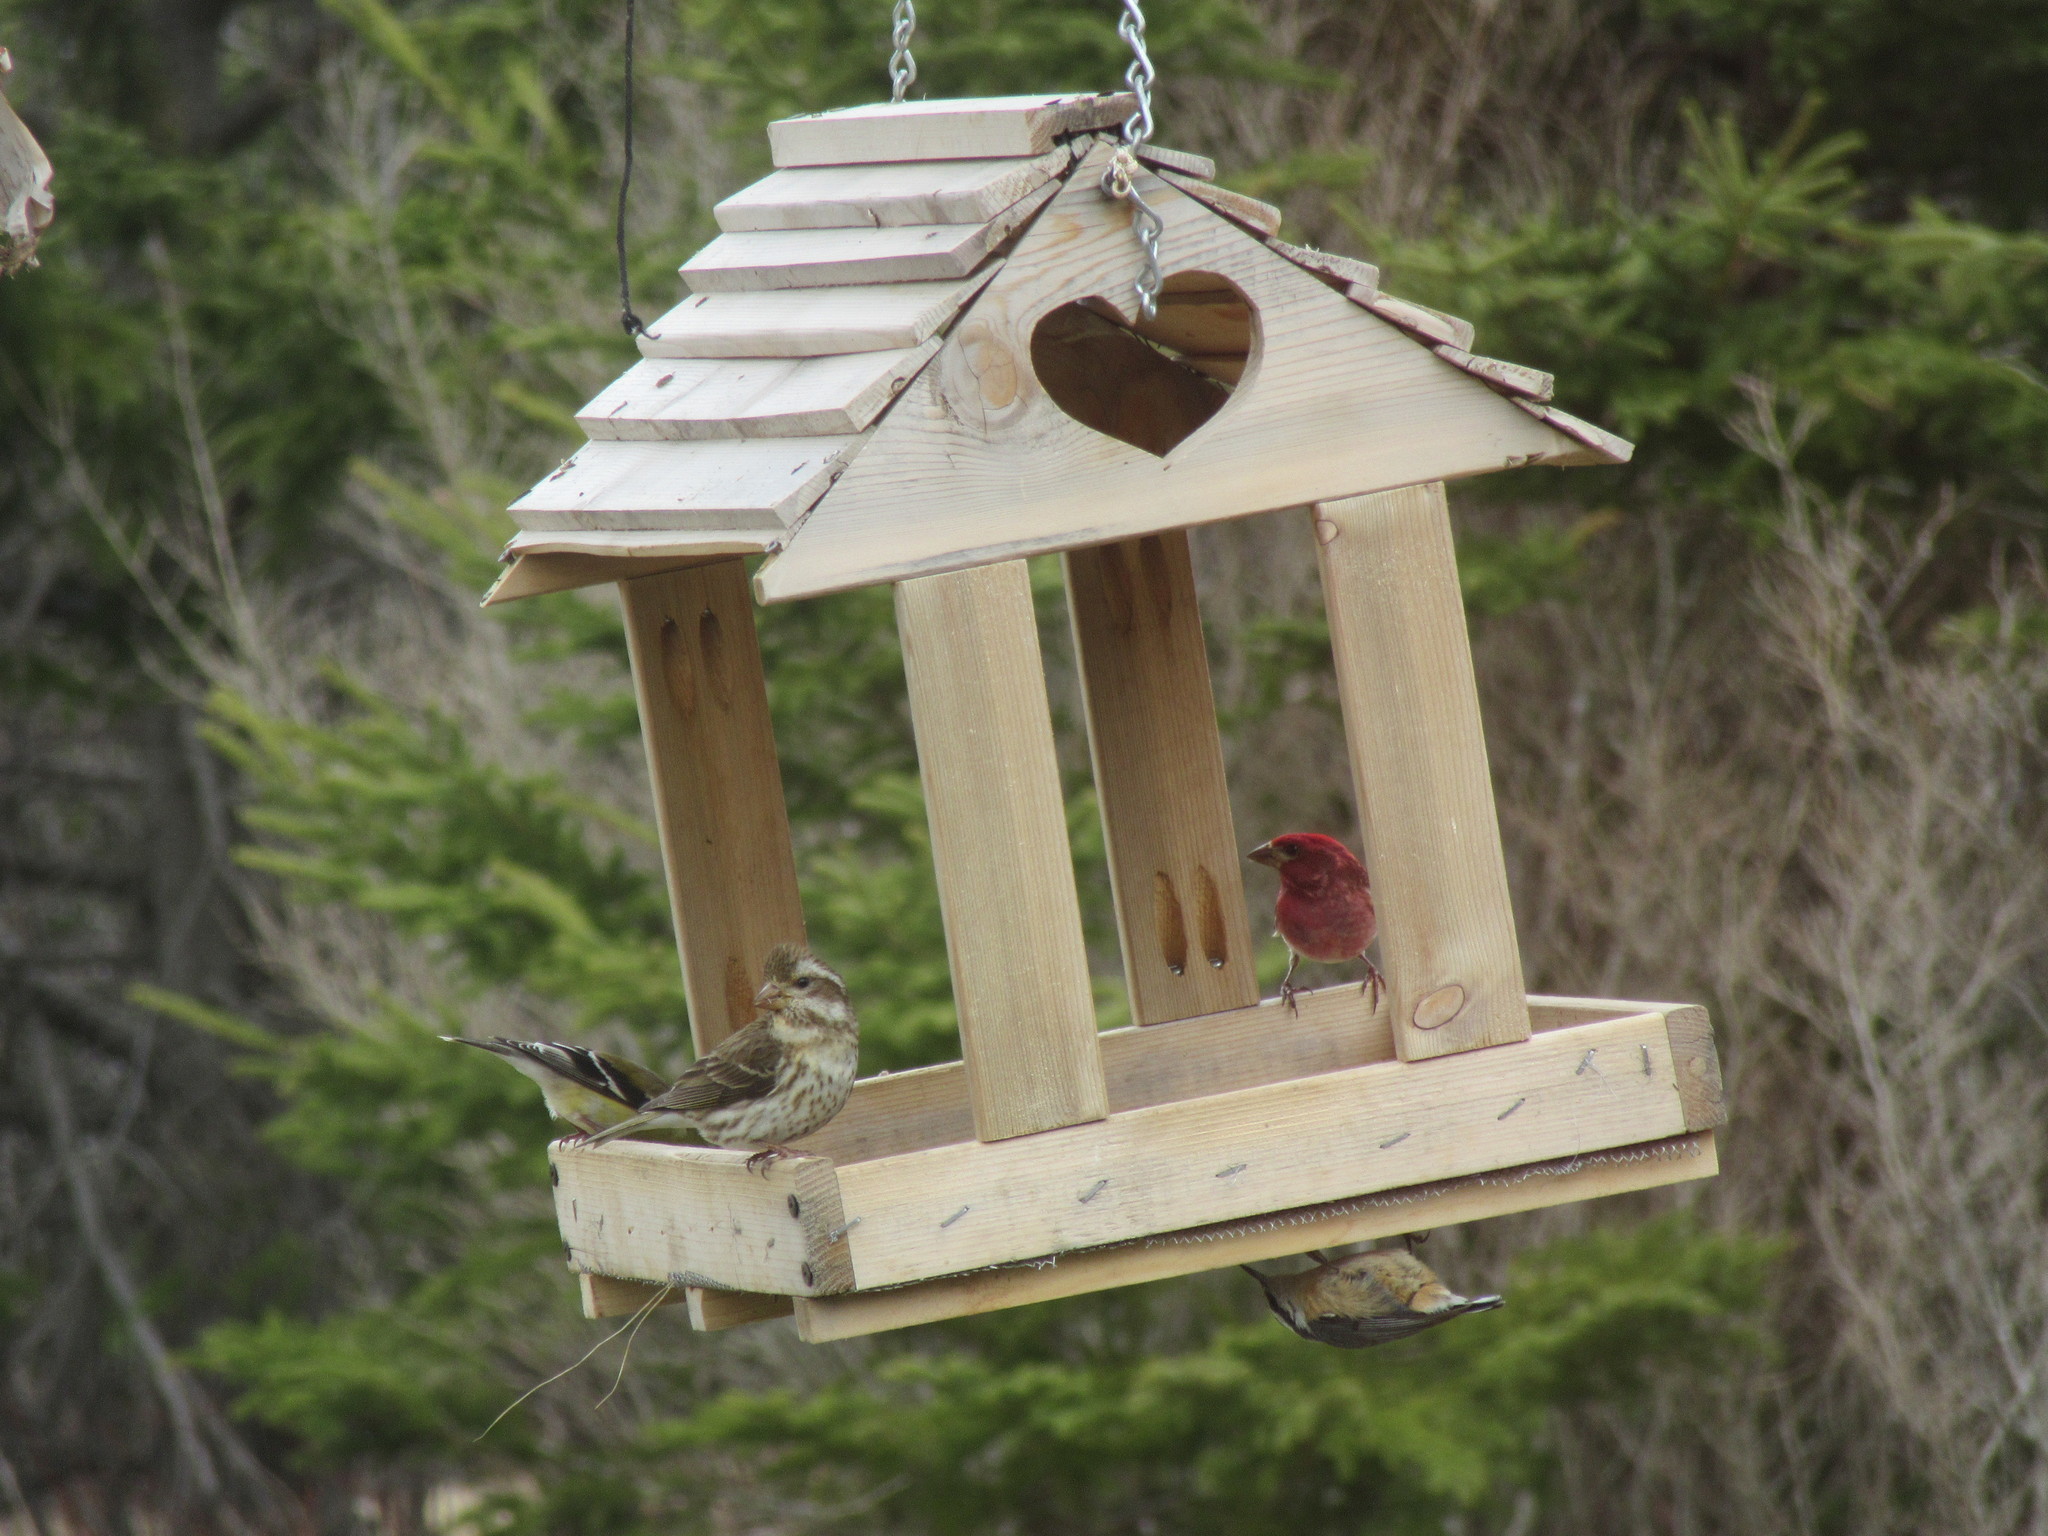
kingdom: Animalia
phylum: Chordata
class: Aves
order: Passeriformes
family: Fringillidae
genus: Haemorhous
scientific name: Haemorhous purpureus
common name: Purple finch
